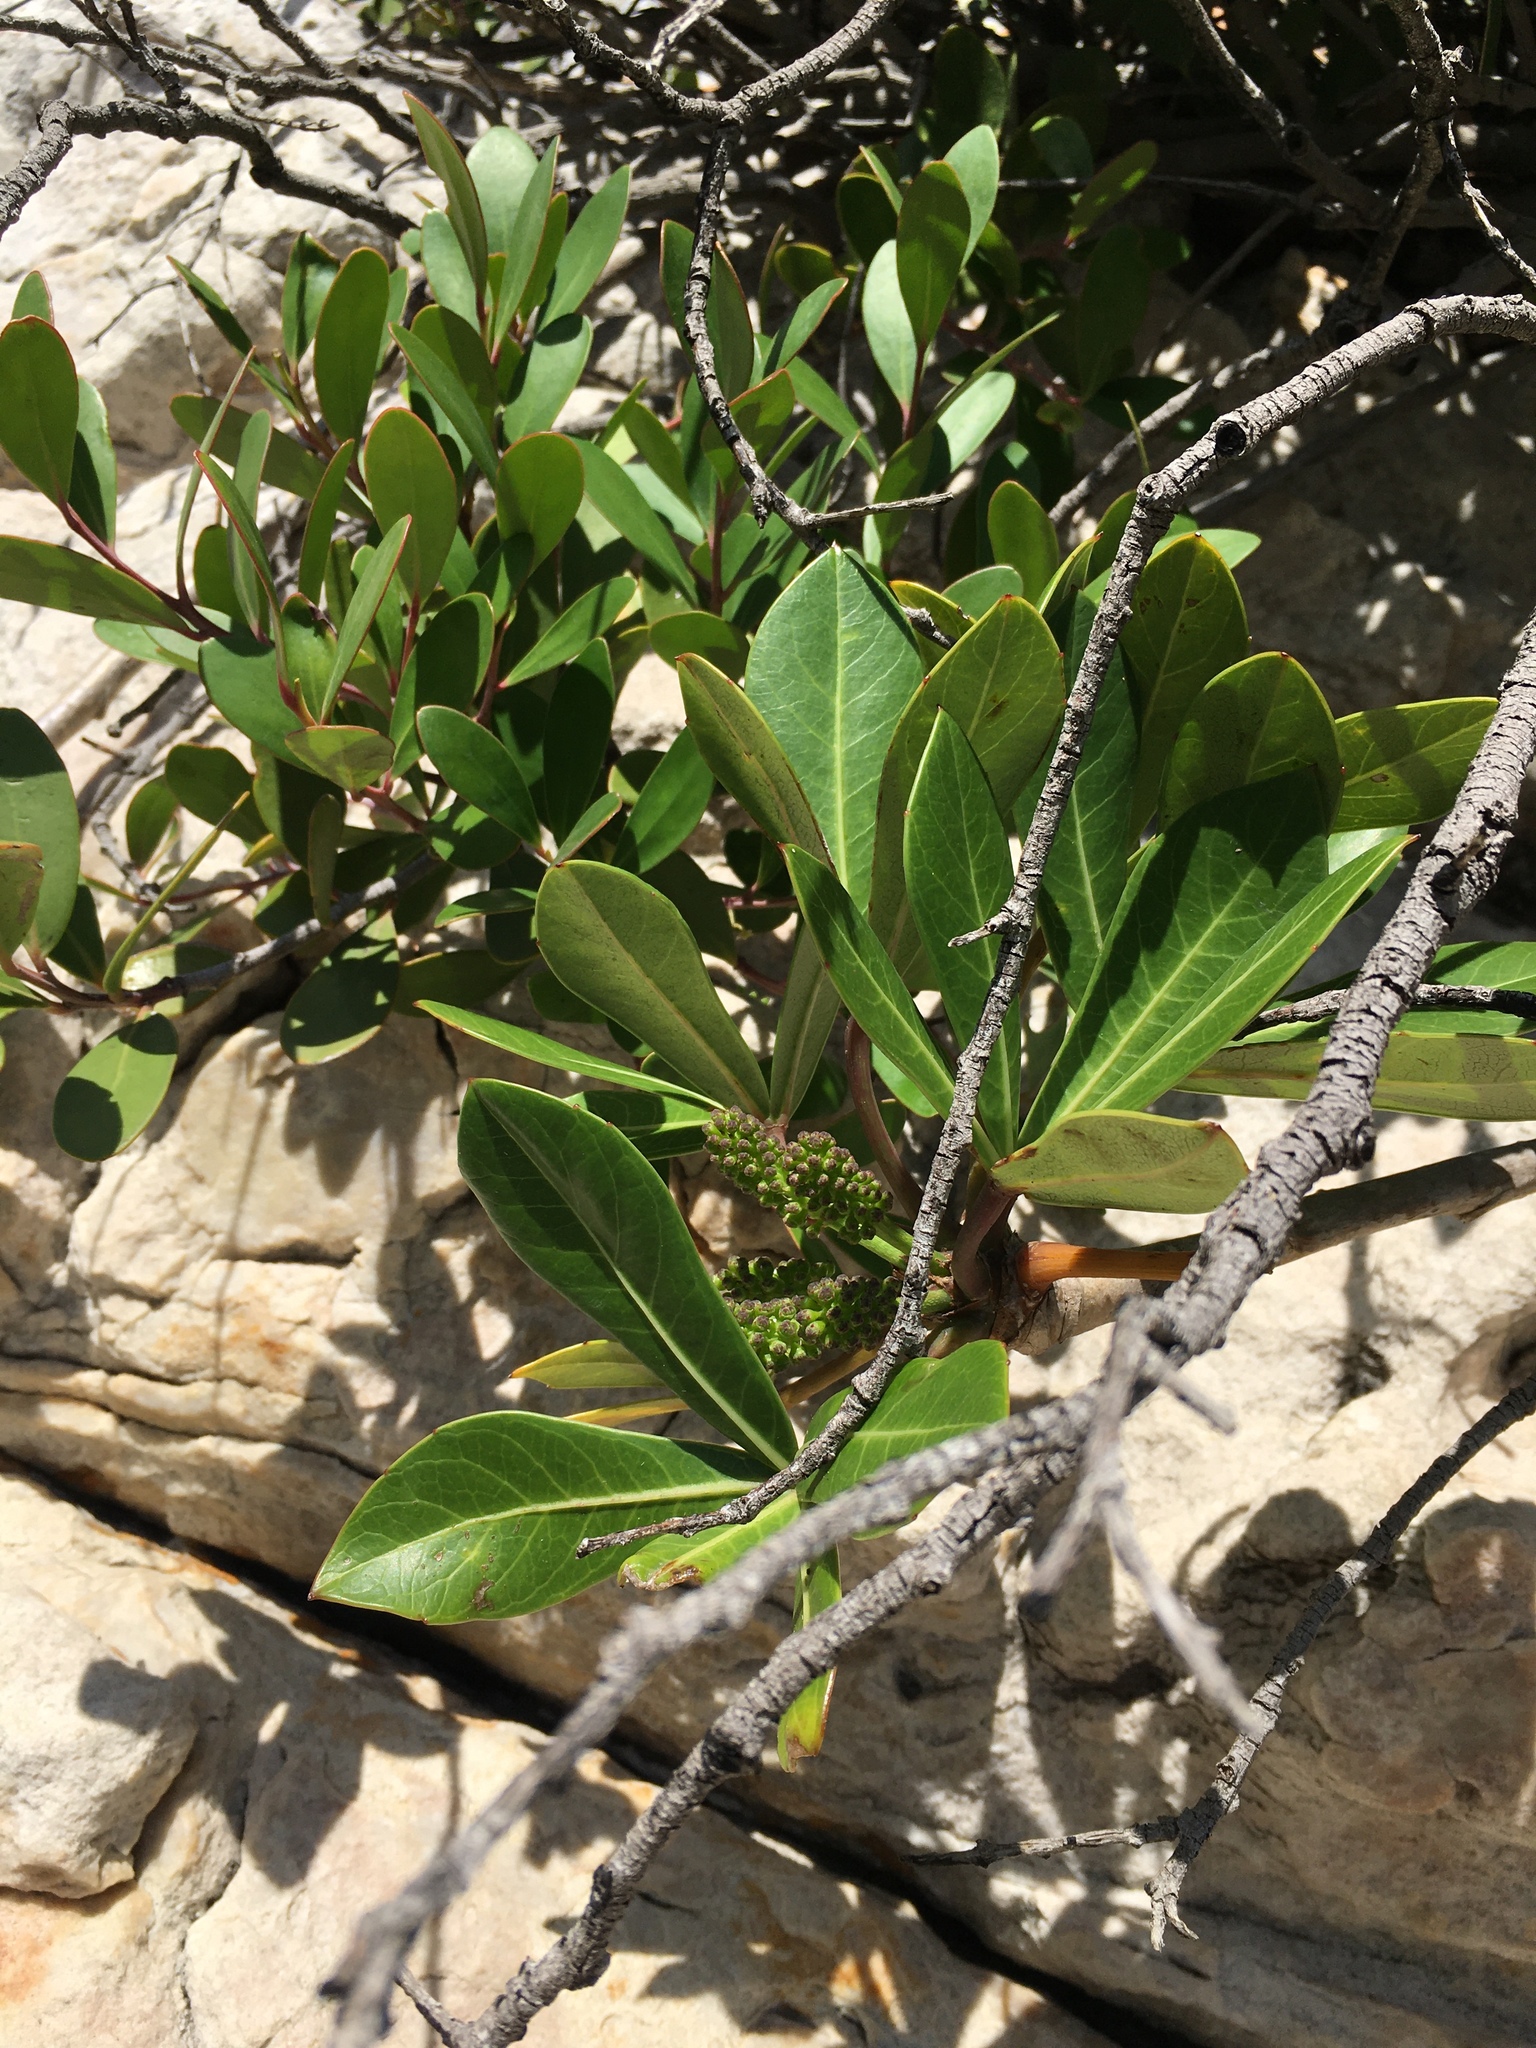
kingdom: Plantae
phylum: Tracheophyta
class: Magnoliopsida
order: Apiales
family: Araliaceae
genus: Cussonia
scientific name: Cussonia thyrsiflora
